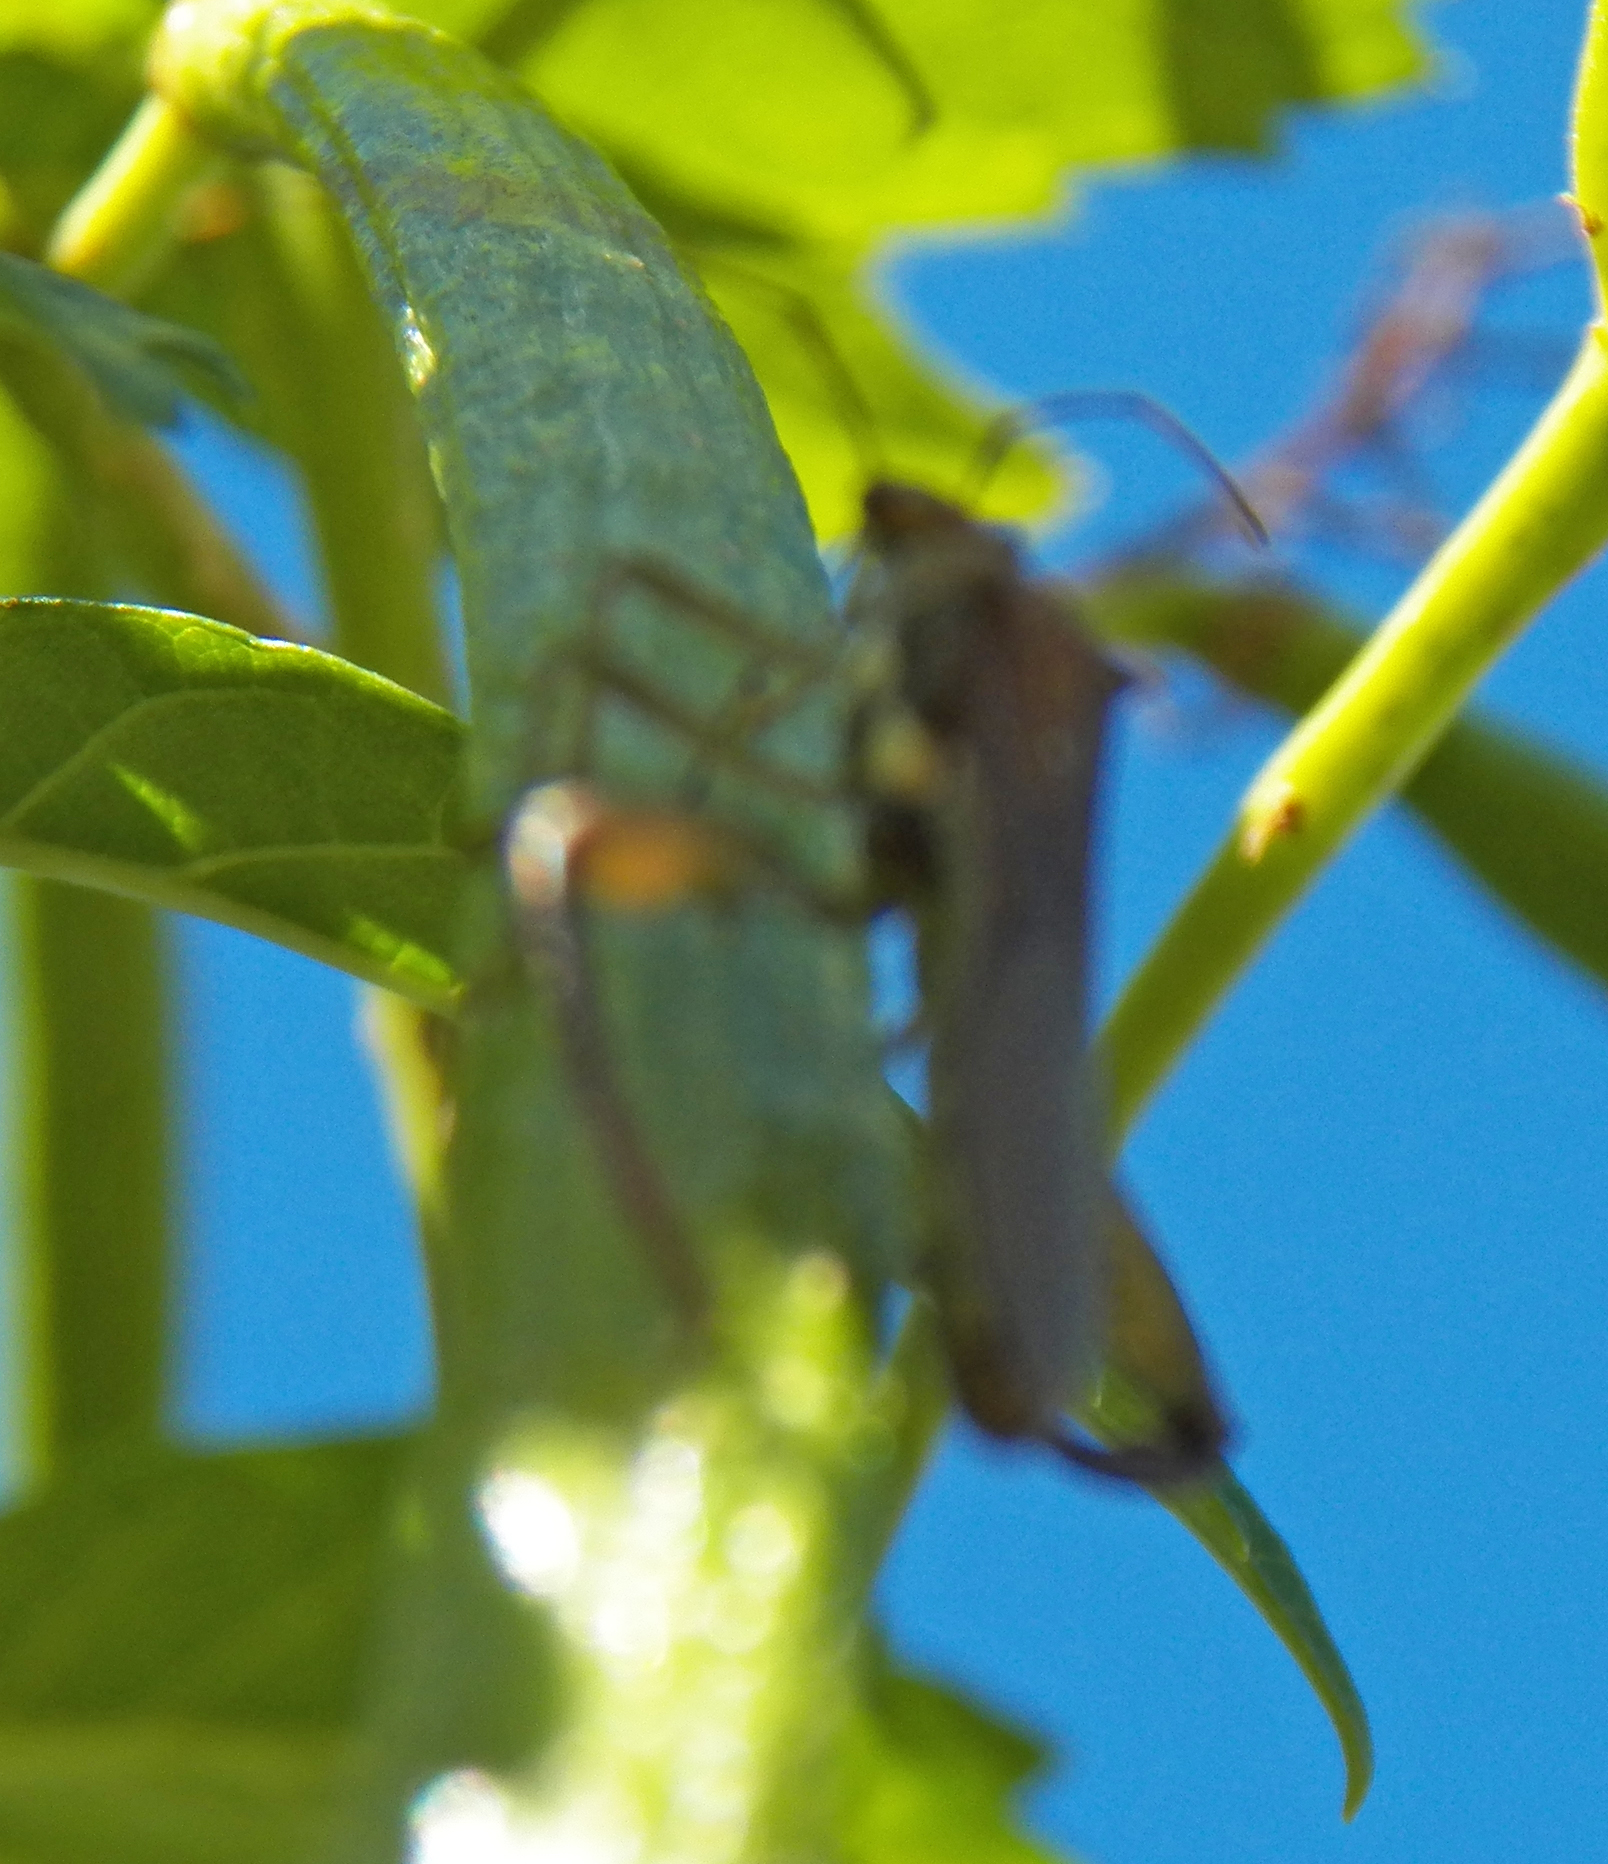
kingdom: Animalia
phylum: Arthropoda
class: Insecta
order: Hemiptera
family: Alydidae
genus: Hyalymenus
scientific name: Hyalymenus tarsatus
